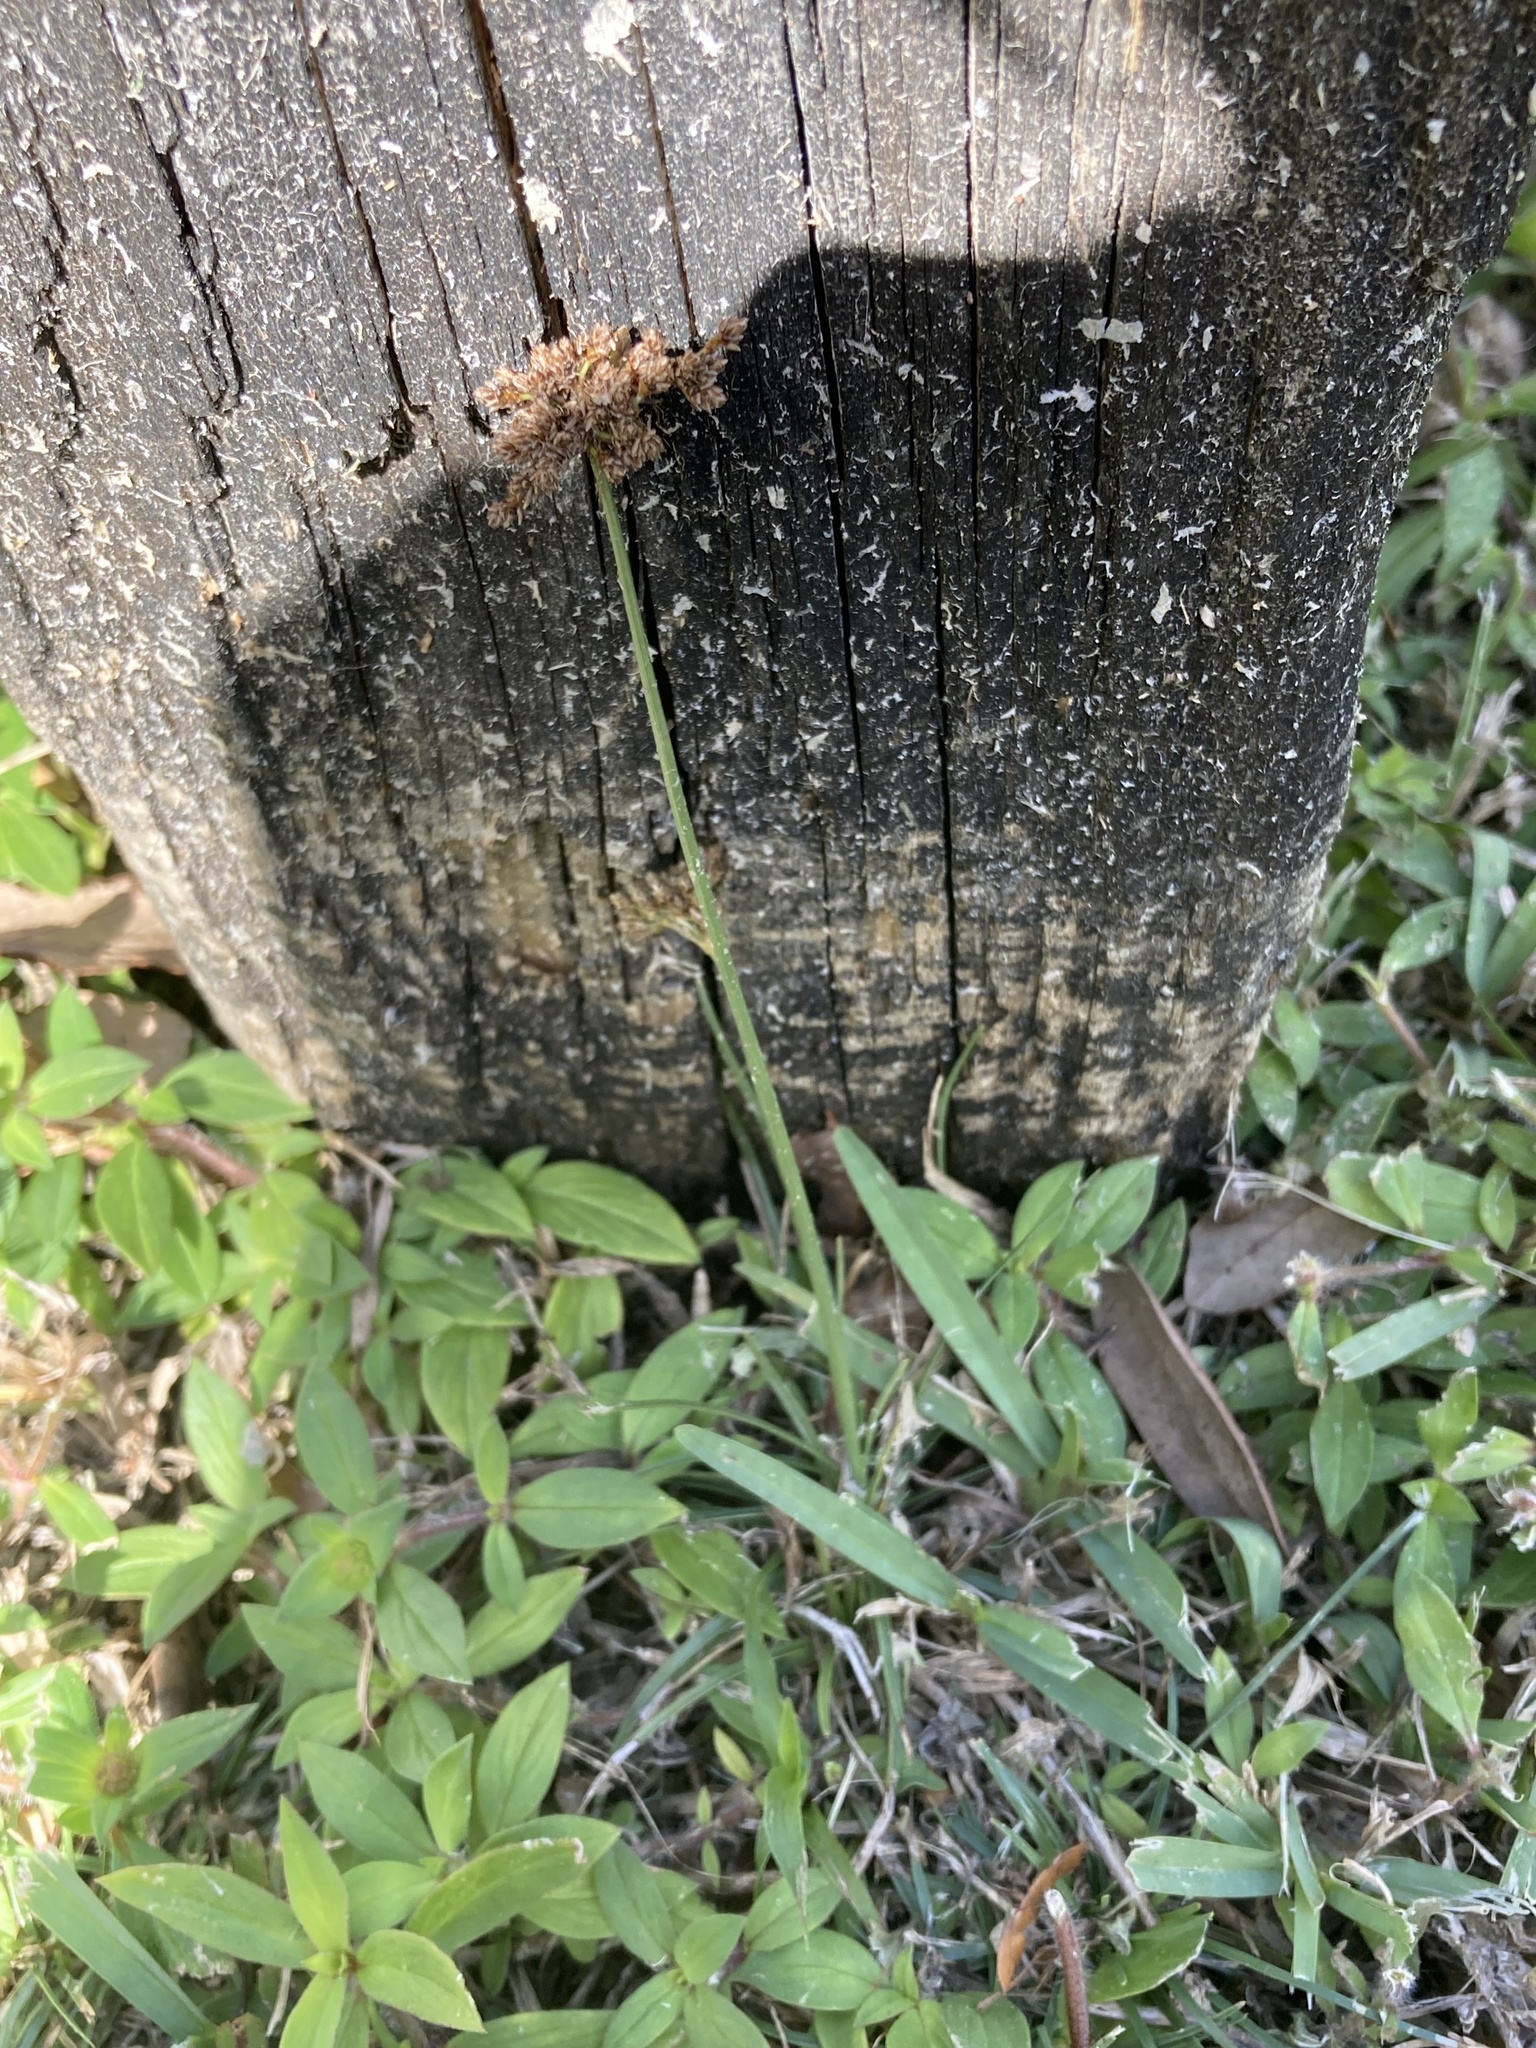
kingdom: Plantae
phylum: Tracheophyta
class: Liliopsida
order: Poales
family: Cyperaceae
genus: Fimbristylis
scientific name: Fimbristylis cymosa
